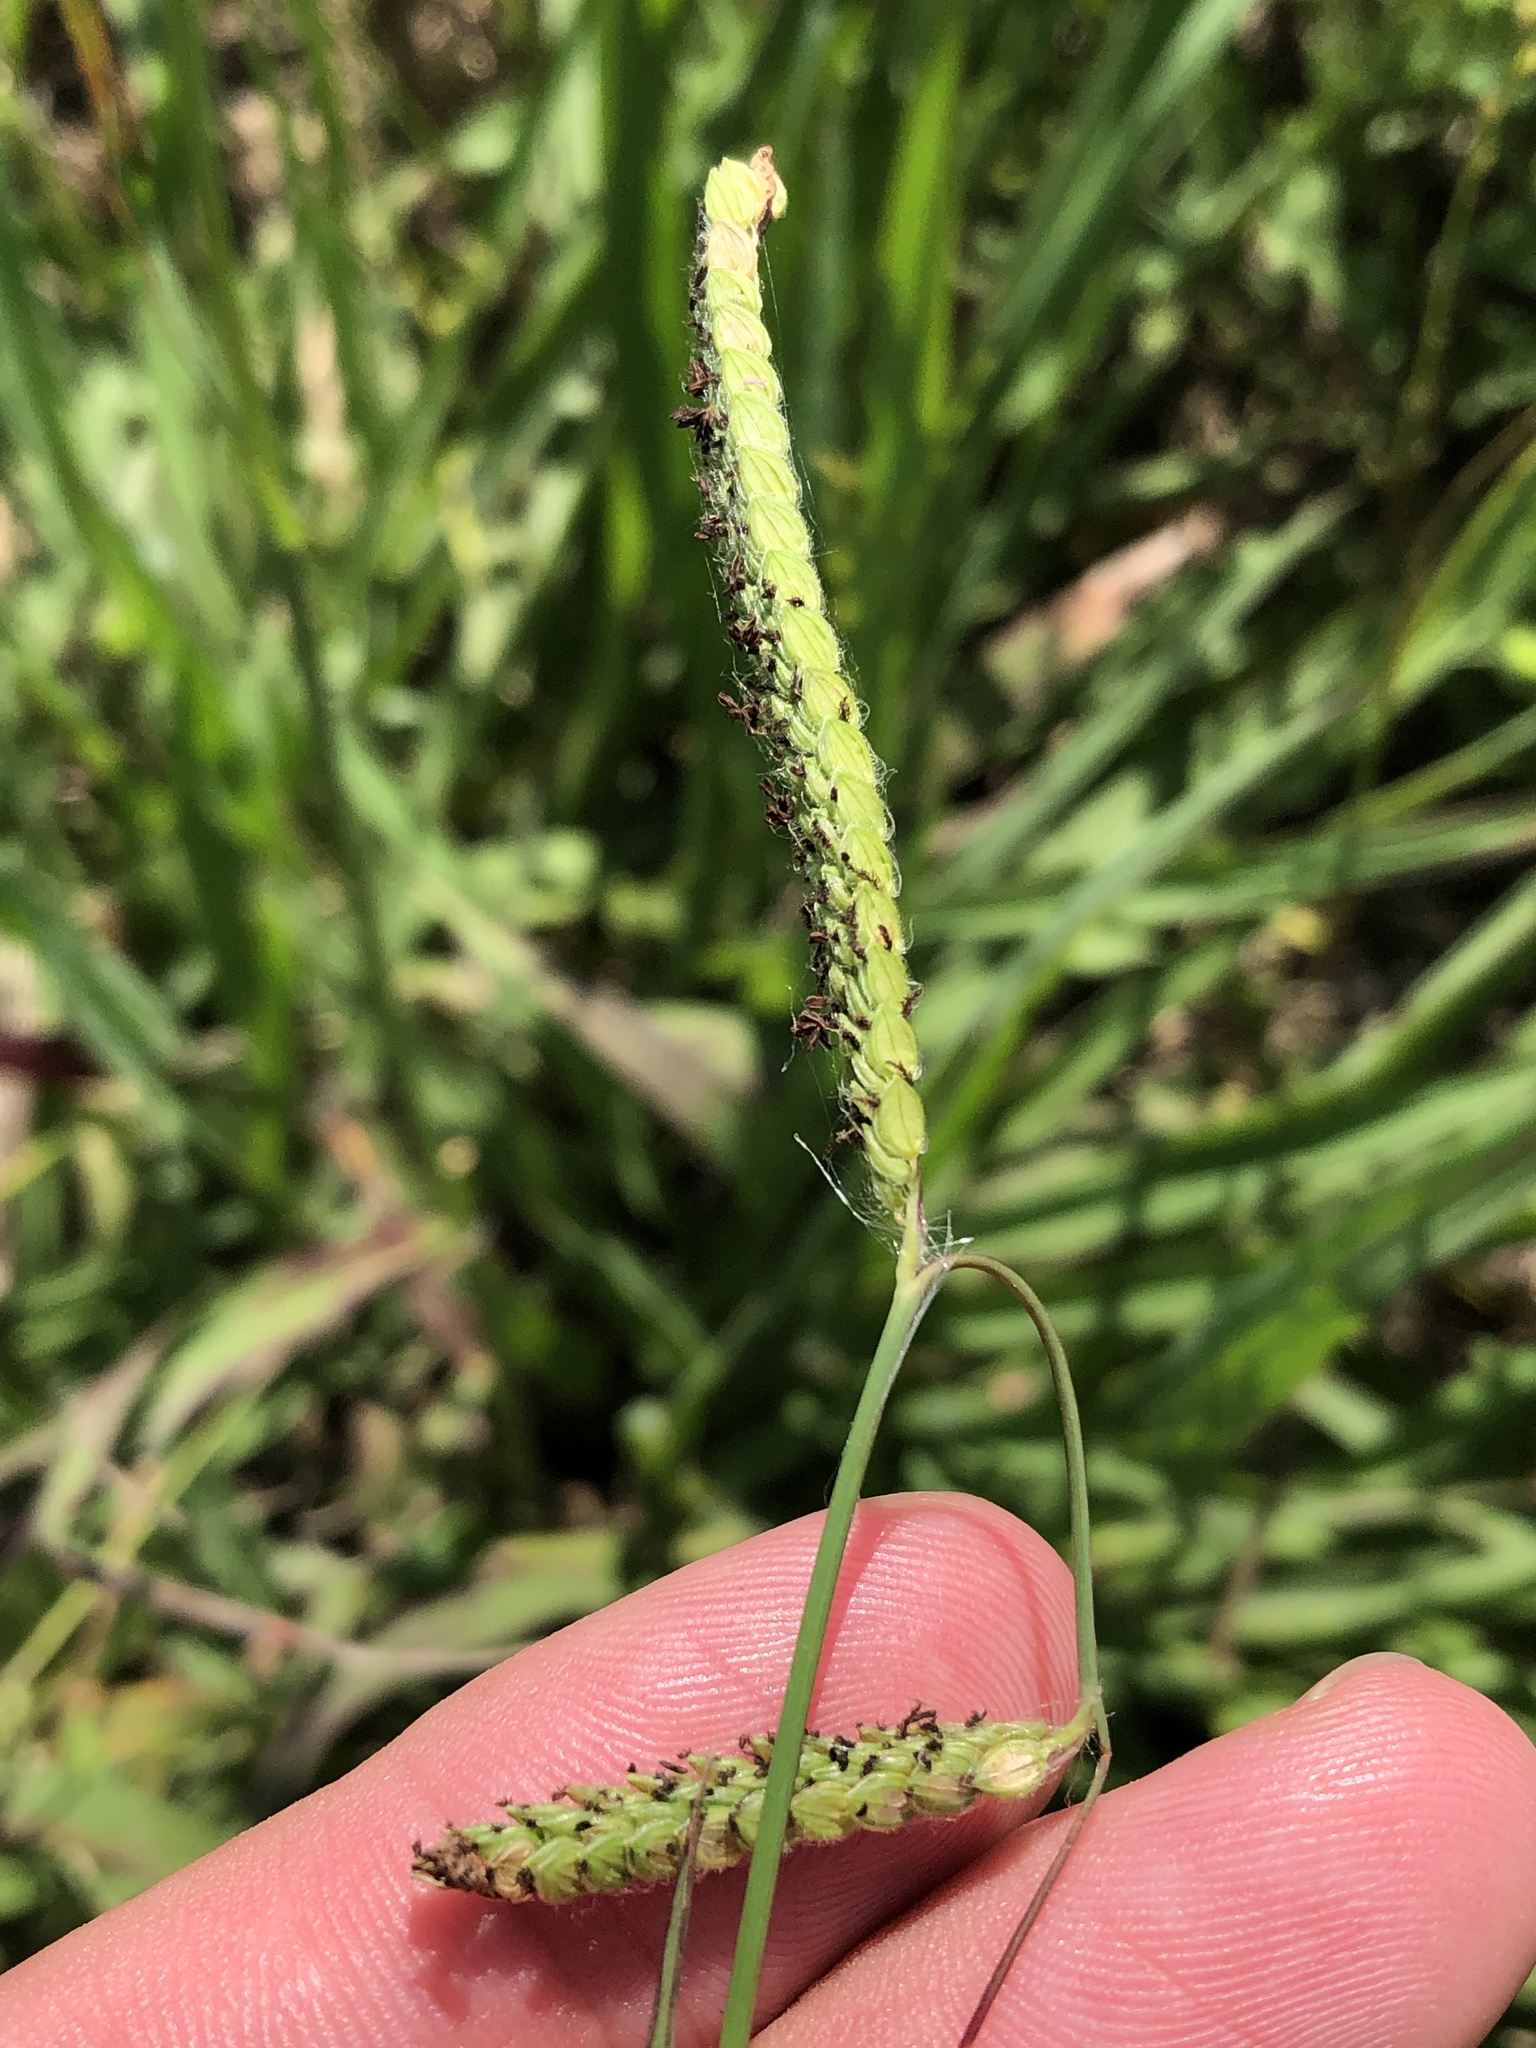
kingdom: Plantae
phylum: Tracheophyta
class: Liliopsida
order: Poales
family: Poaceae
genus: Paspalum
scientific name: Paspalum dilatatum
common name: Dallisgrass
